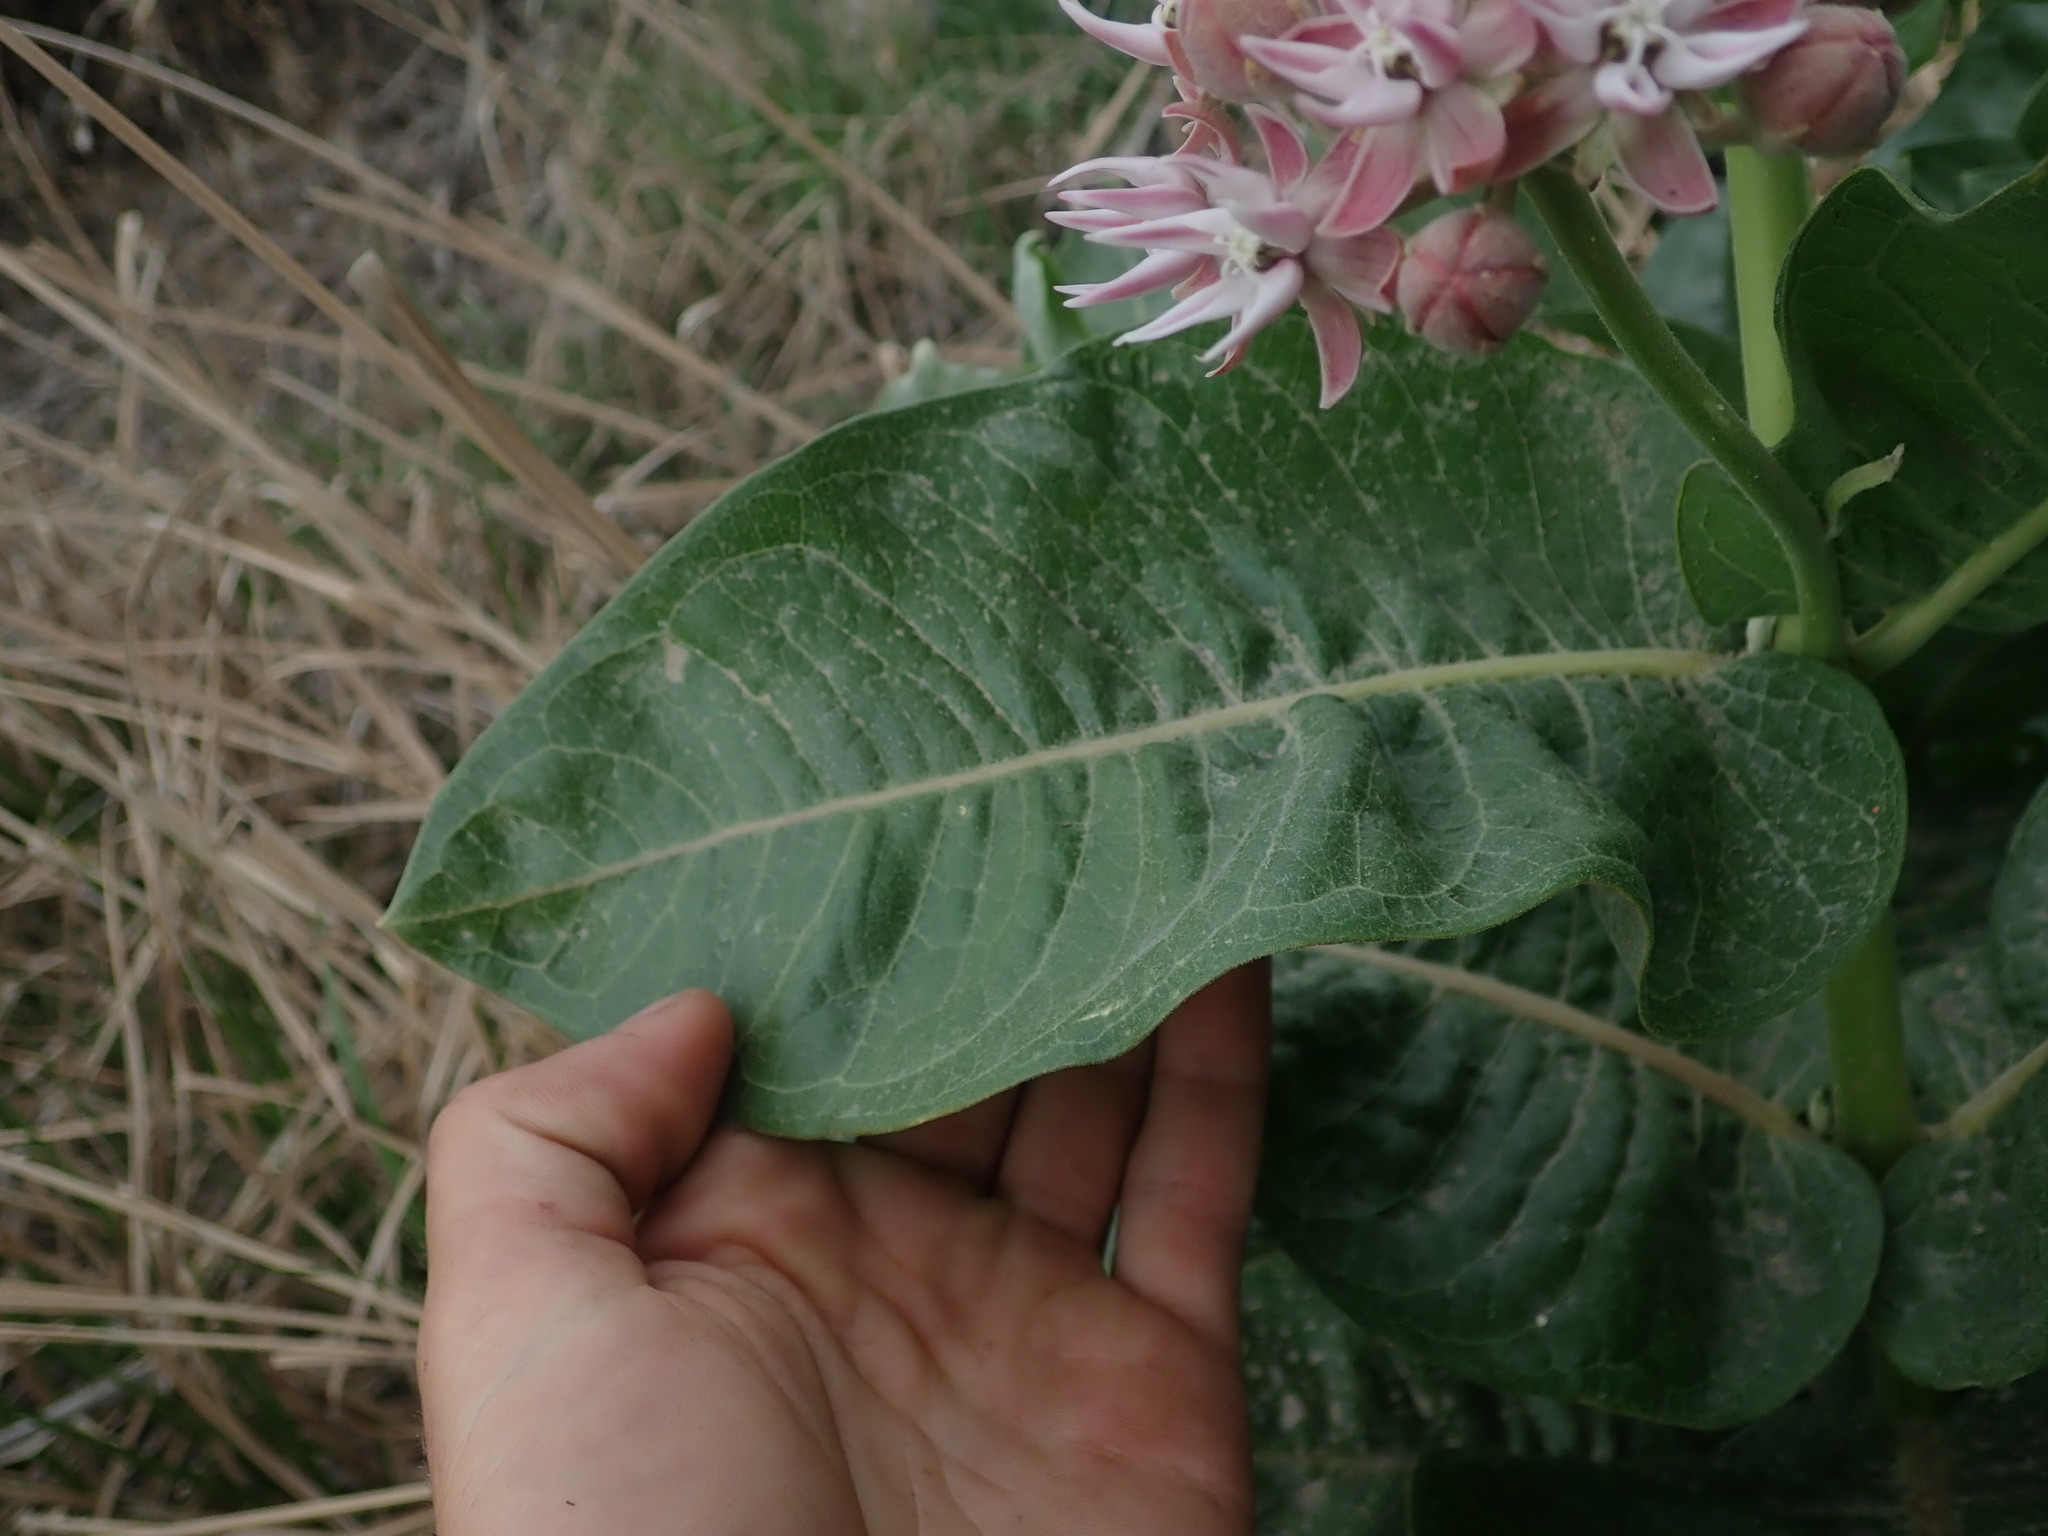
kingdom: Plantae
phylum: Tracheophyta
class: Magnoliopsida
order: Gentianales
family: Apocynaceae
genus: Asclepias
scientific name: Asclepias speciosa
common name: Showy milkweed
